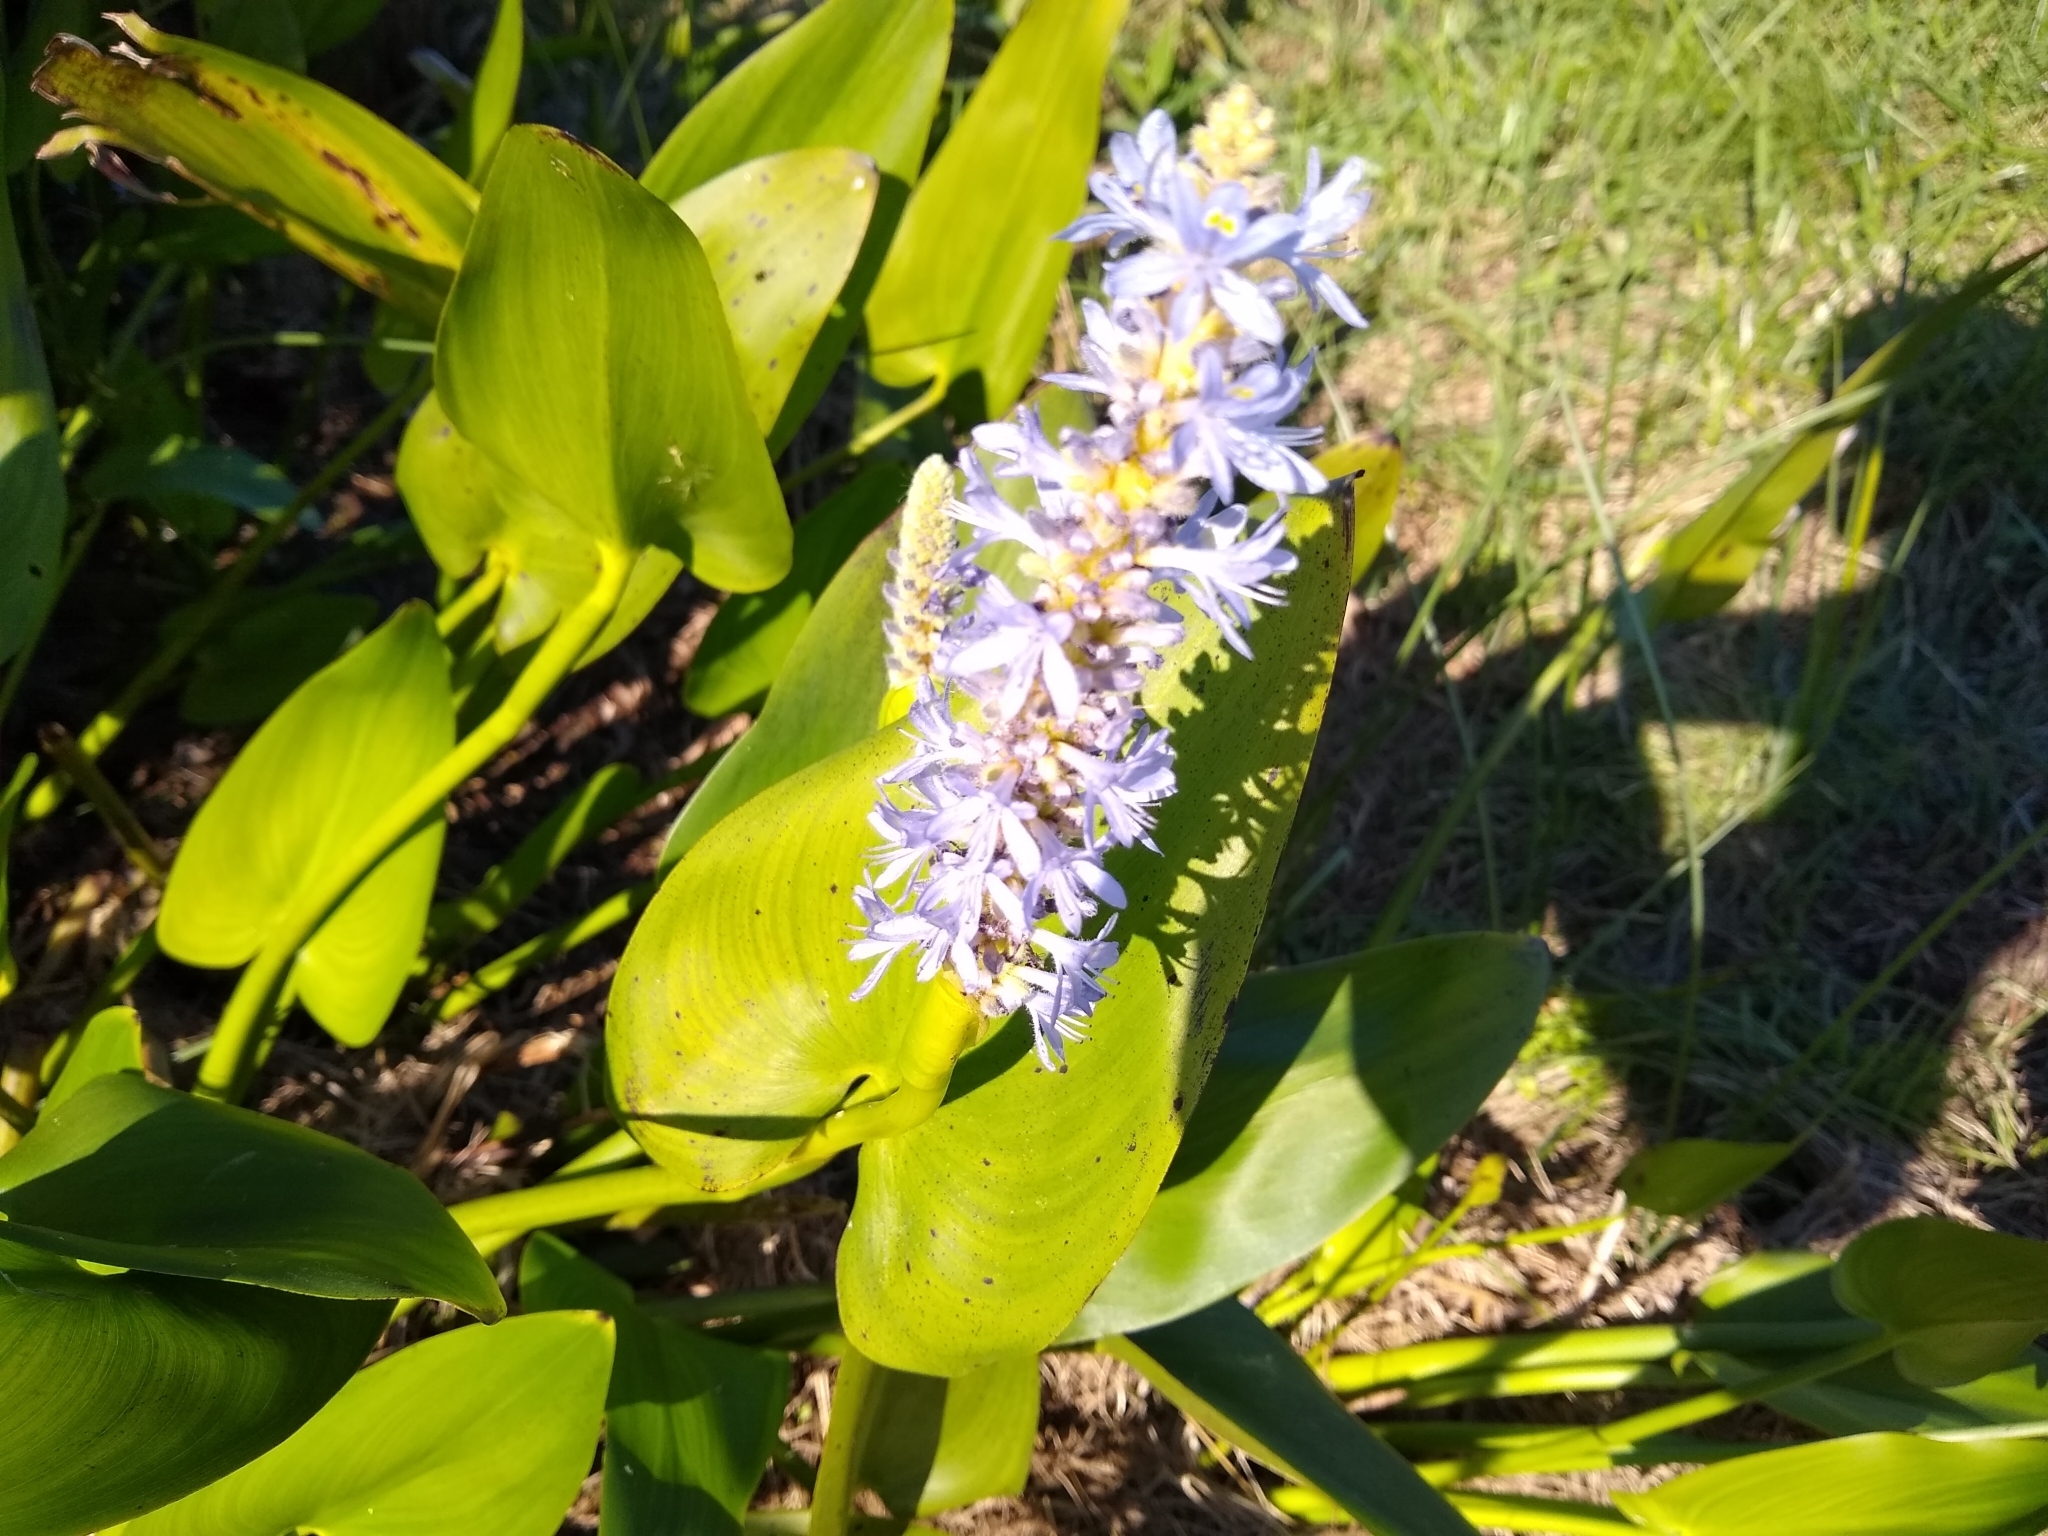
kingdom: Plantae
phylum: Tracheophyta
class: Liliopsida
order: Commelinales
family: Pontederiaceae
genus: Pontederia
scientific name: Pontederia cordata
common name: Pickerelweed
